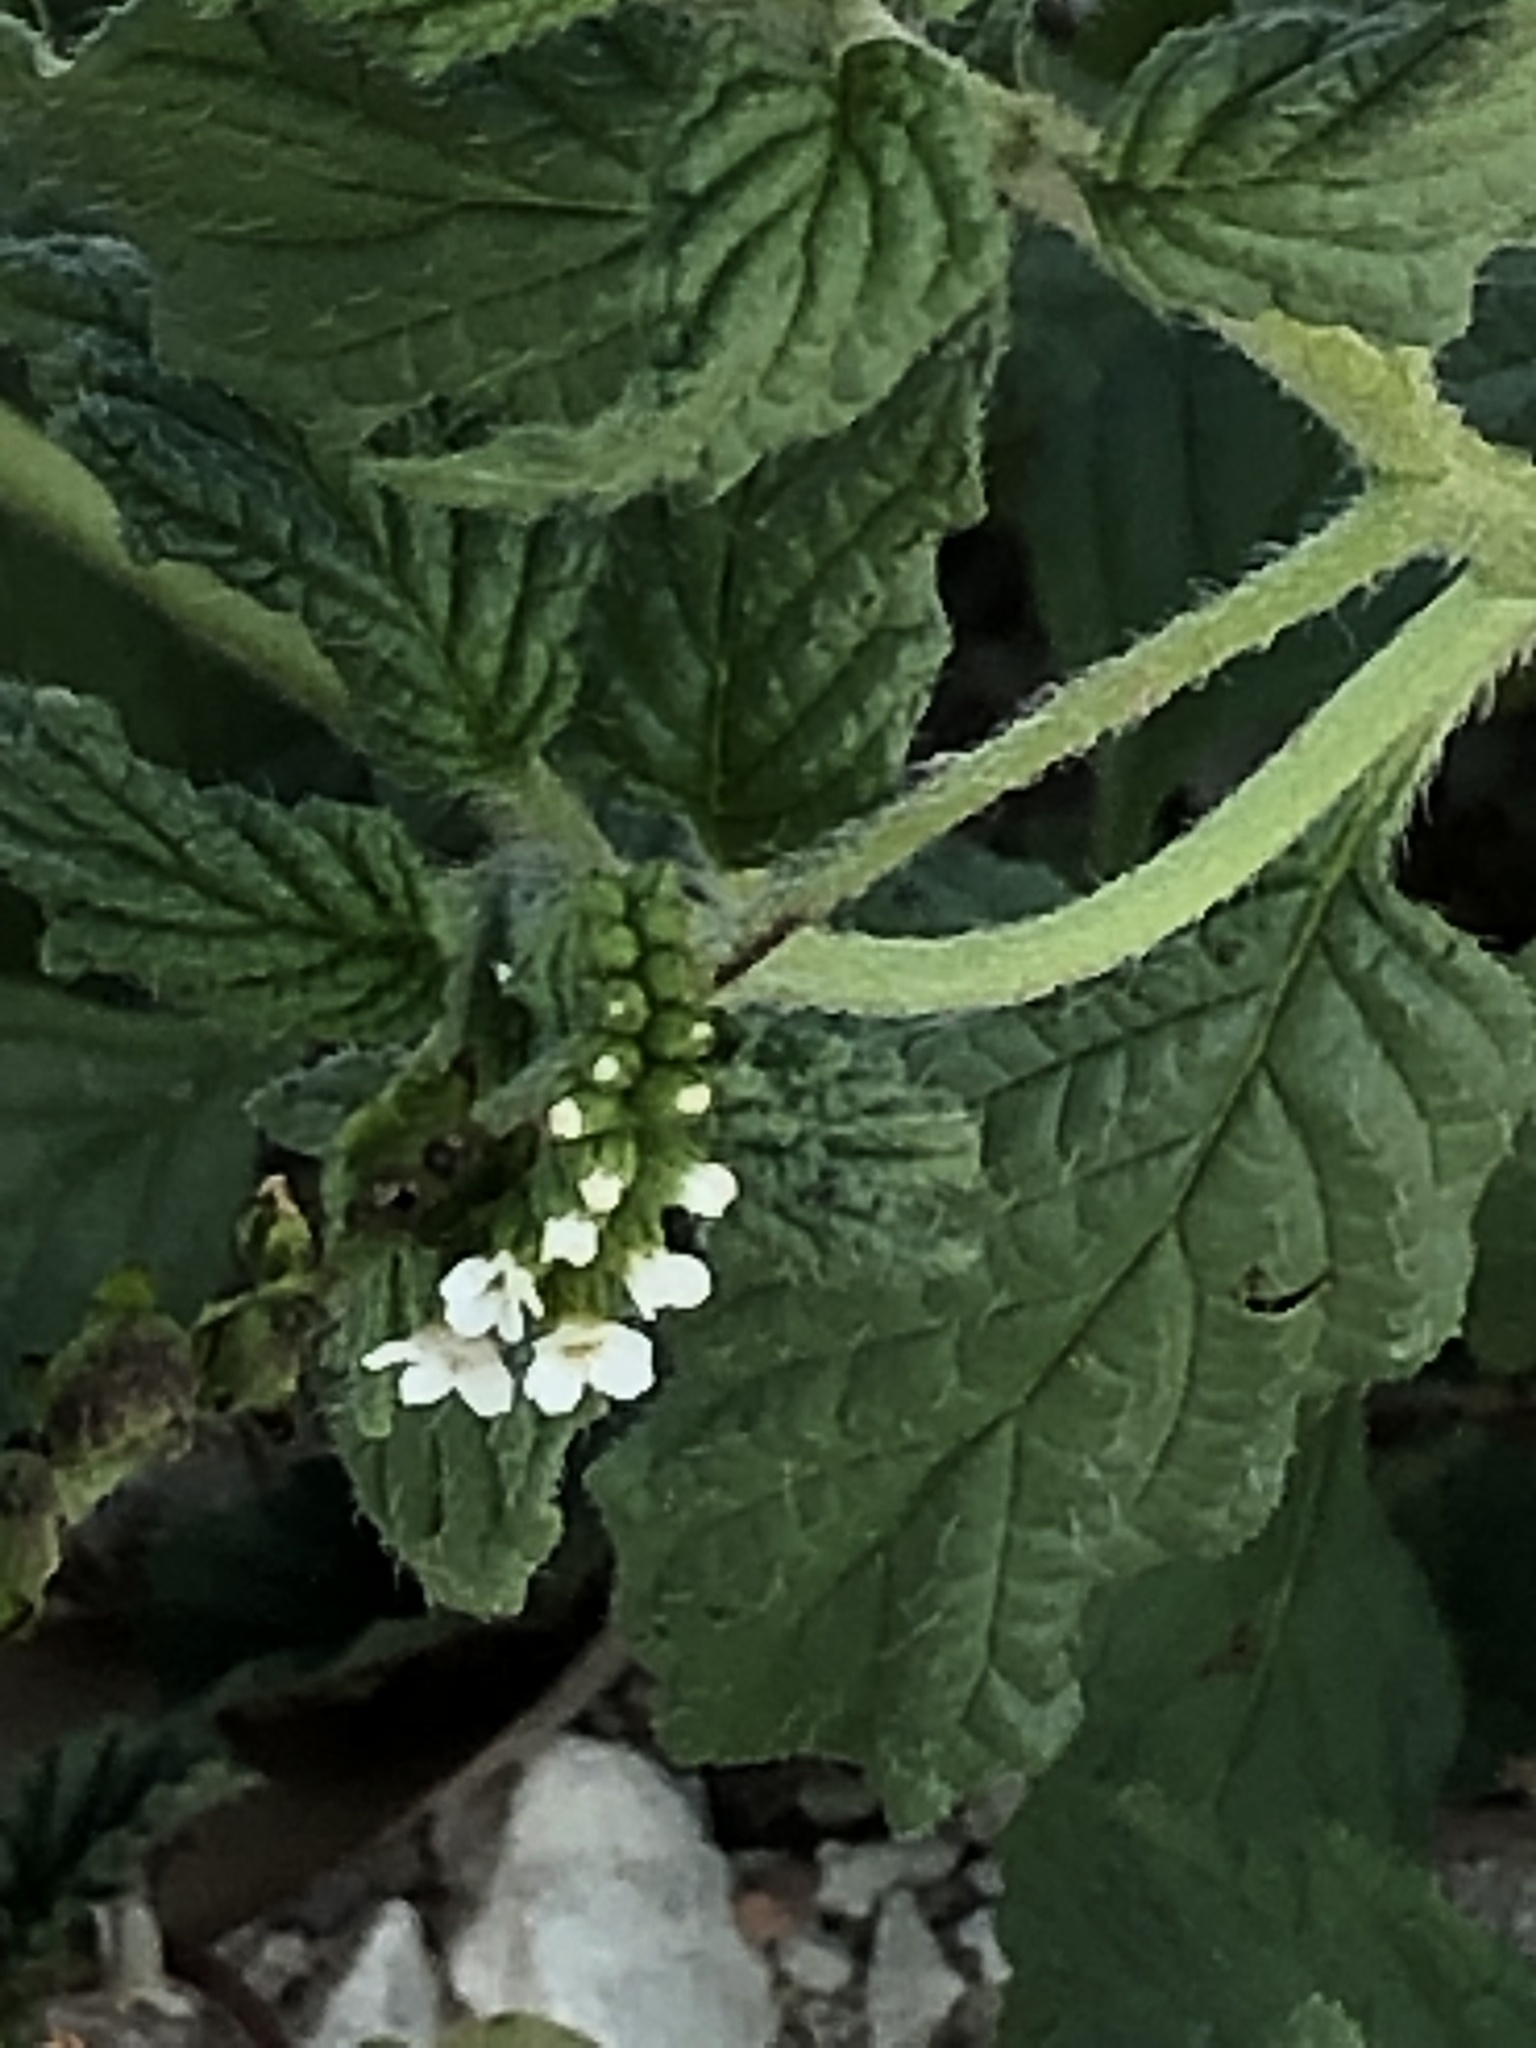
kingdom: Plantae
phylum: Tracheophyta
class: Magnoliopsida
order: Boraginales
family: Heliotropiaceae
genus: Heliotropium
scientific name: Heliotropium angiospermum
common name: Eye bright
